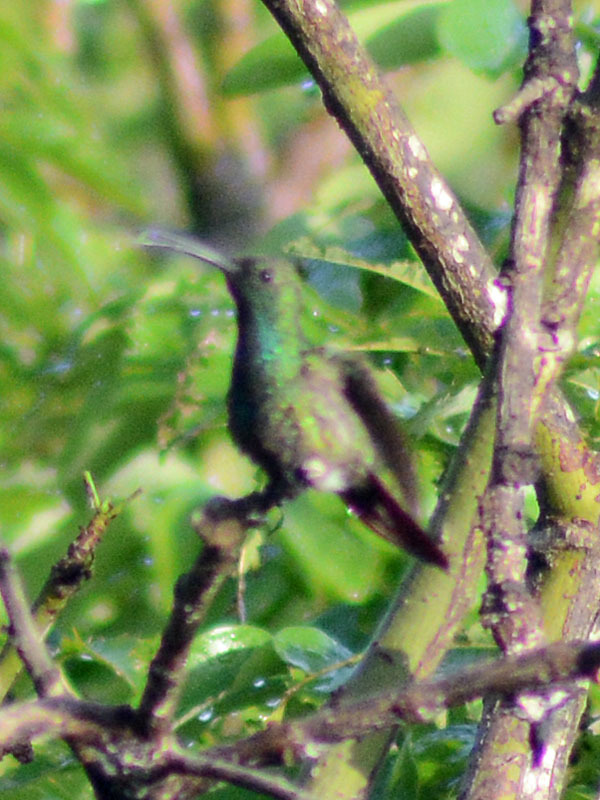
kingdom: Animalia
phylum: Chordata
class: Aves
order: Apodiformes
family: Trochilidae
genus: Anthracothorax
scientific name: Anthracothorax prevostii
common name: Green-breasted mango
